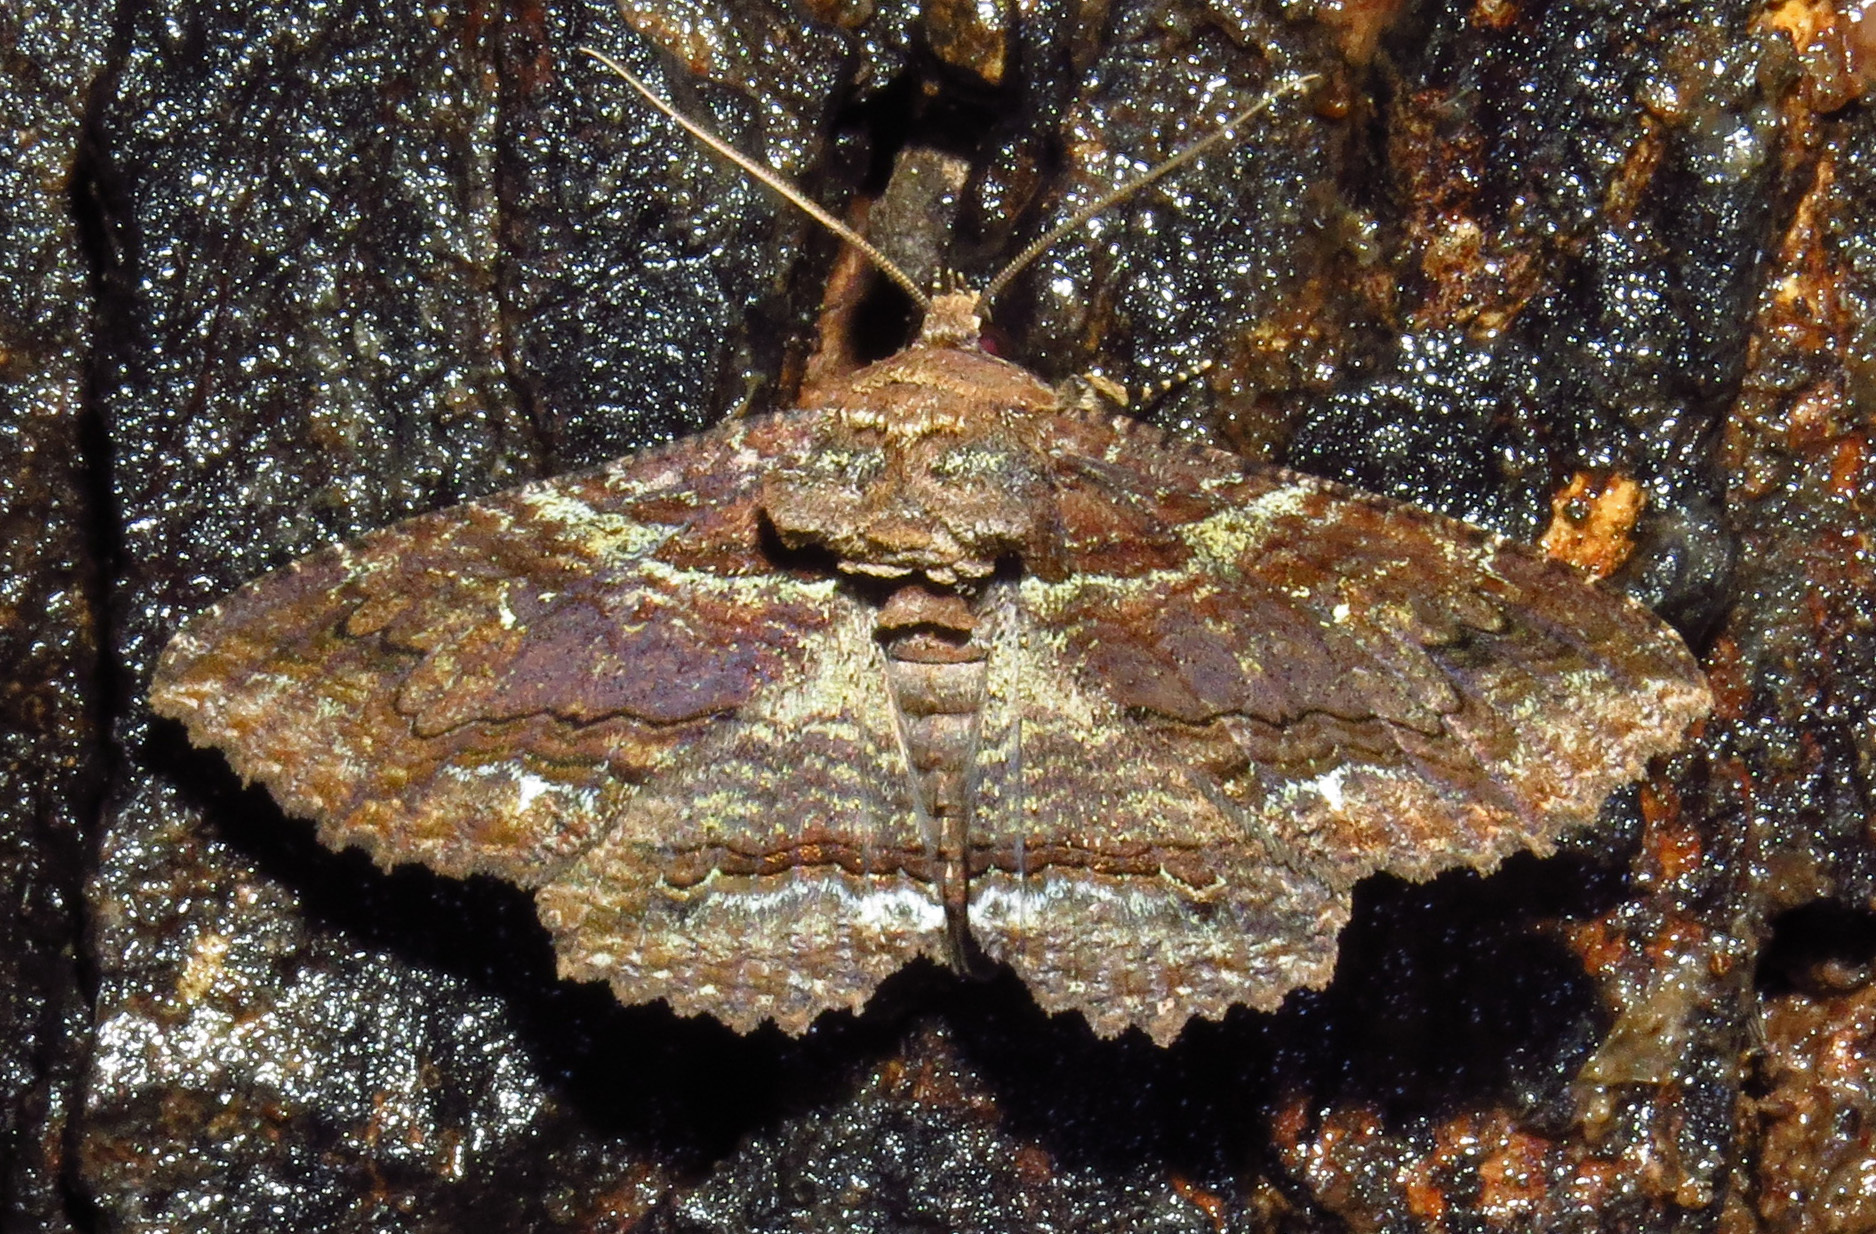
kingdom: Animalia
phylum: Arthropoda
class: Insecta
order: Lepidoptera
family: Erebidae
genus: Zale
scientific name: Zale lunata
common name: Lunate zale moth
